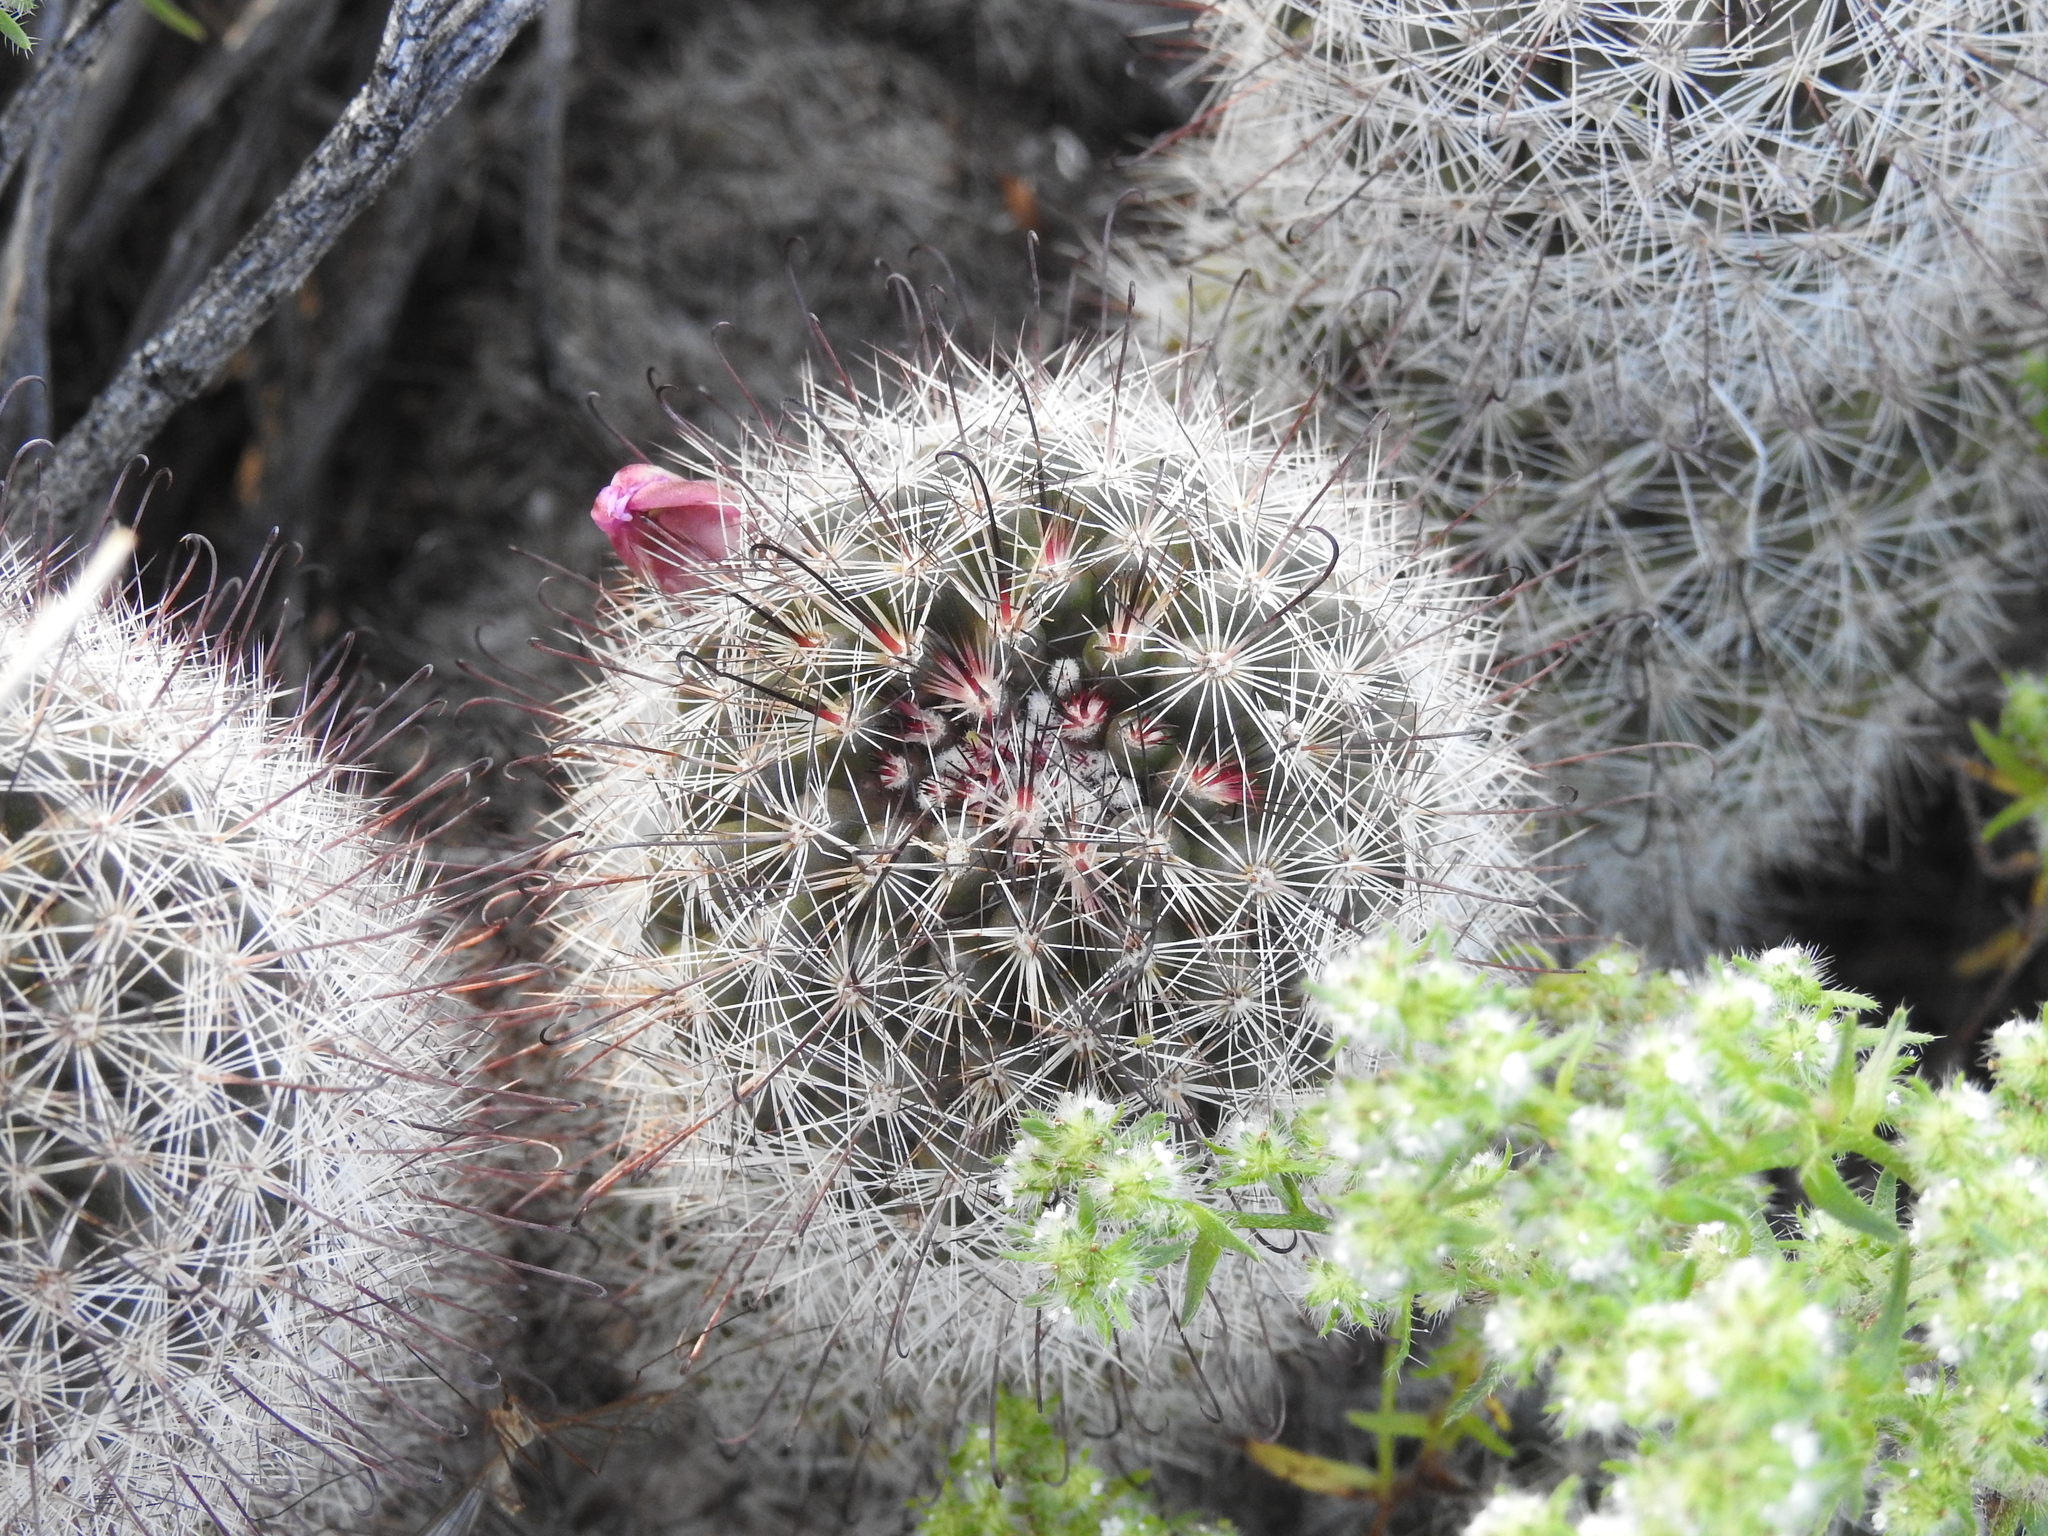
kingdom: Plantae
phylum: Tracheophyta
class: Magnoliopsida
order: Caryophyllales
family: Cactaceae
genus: Cochemiea
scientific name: Cochemiea grahamii
